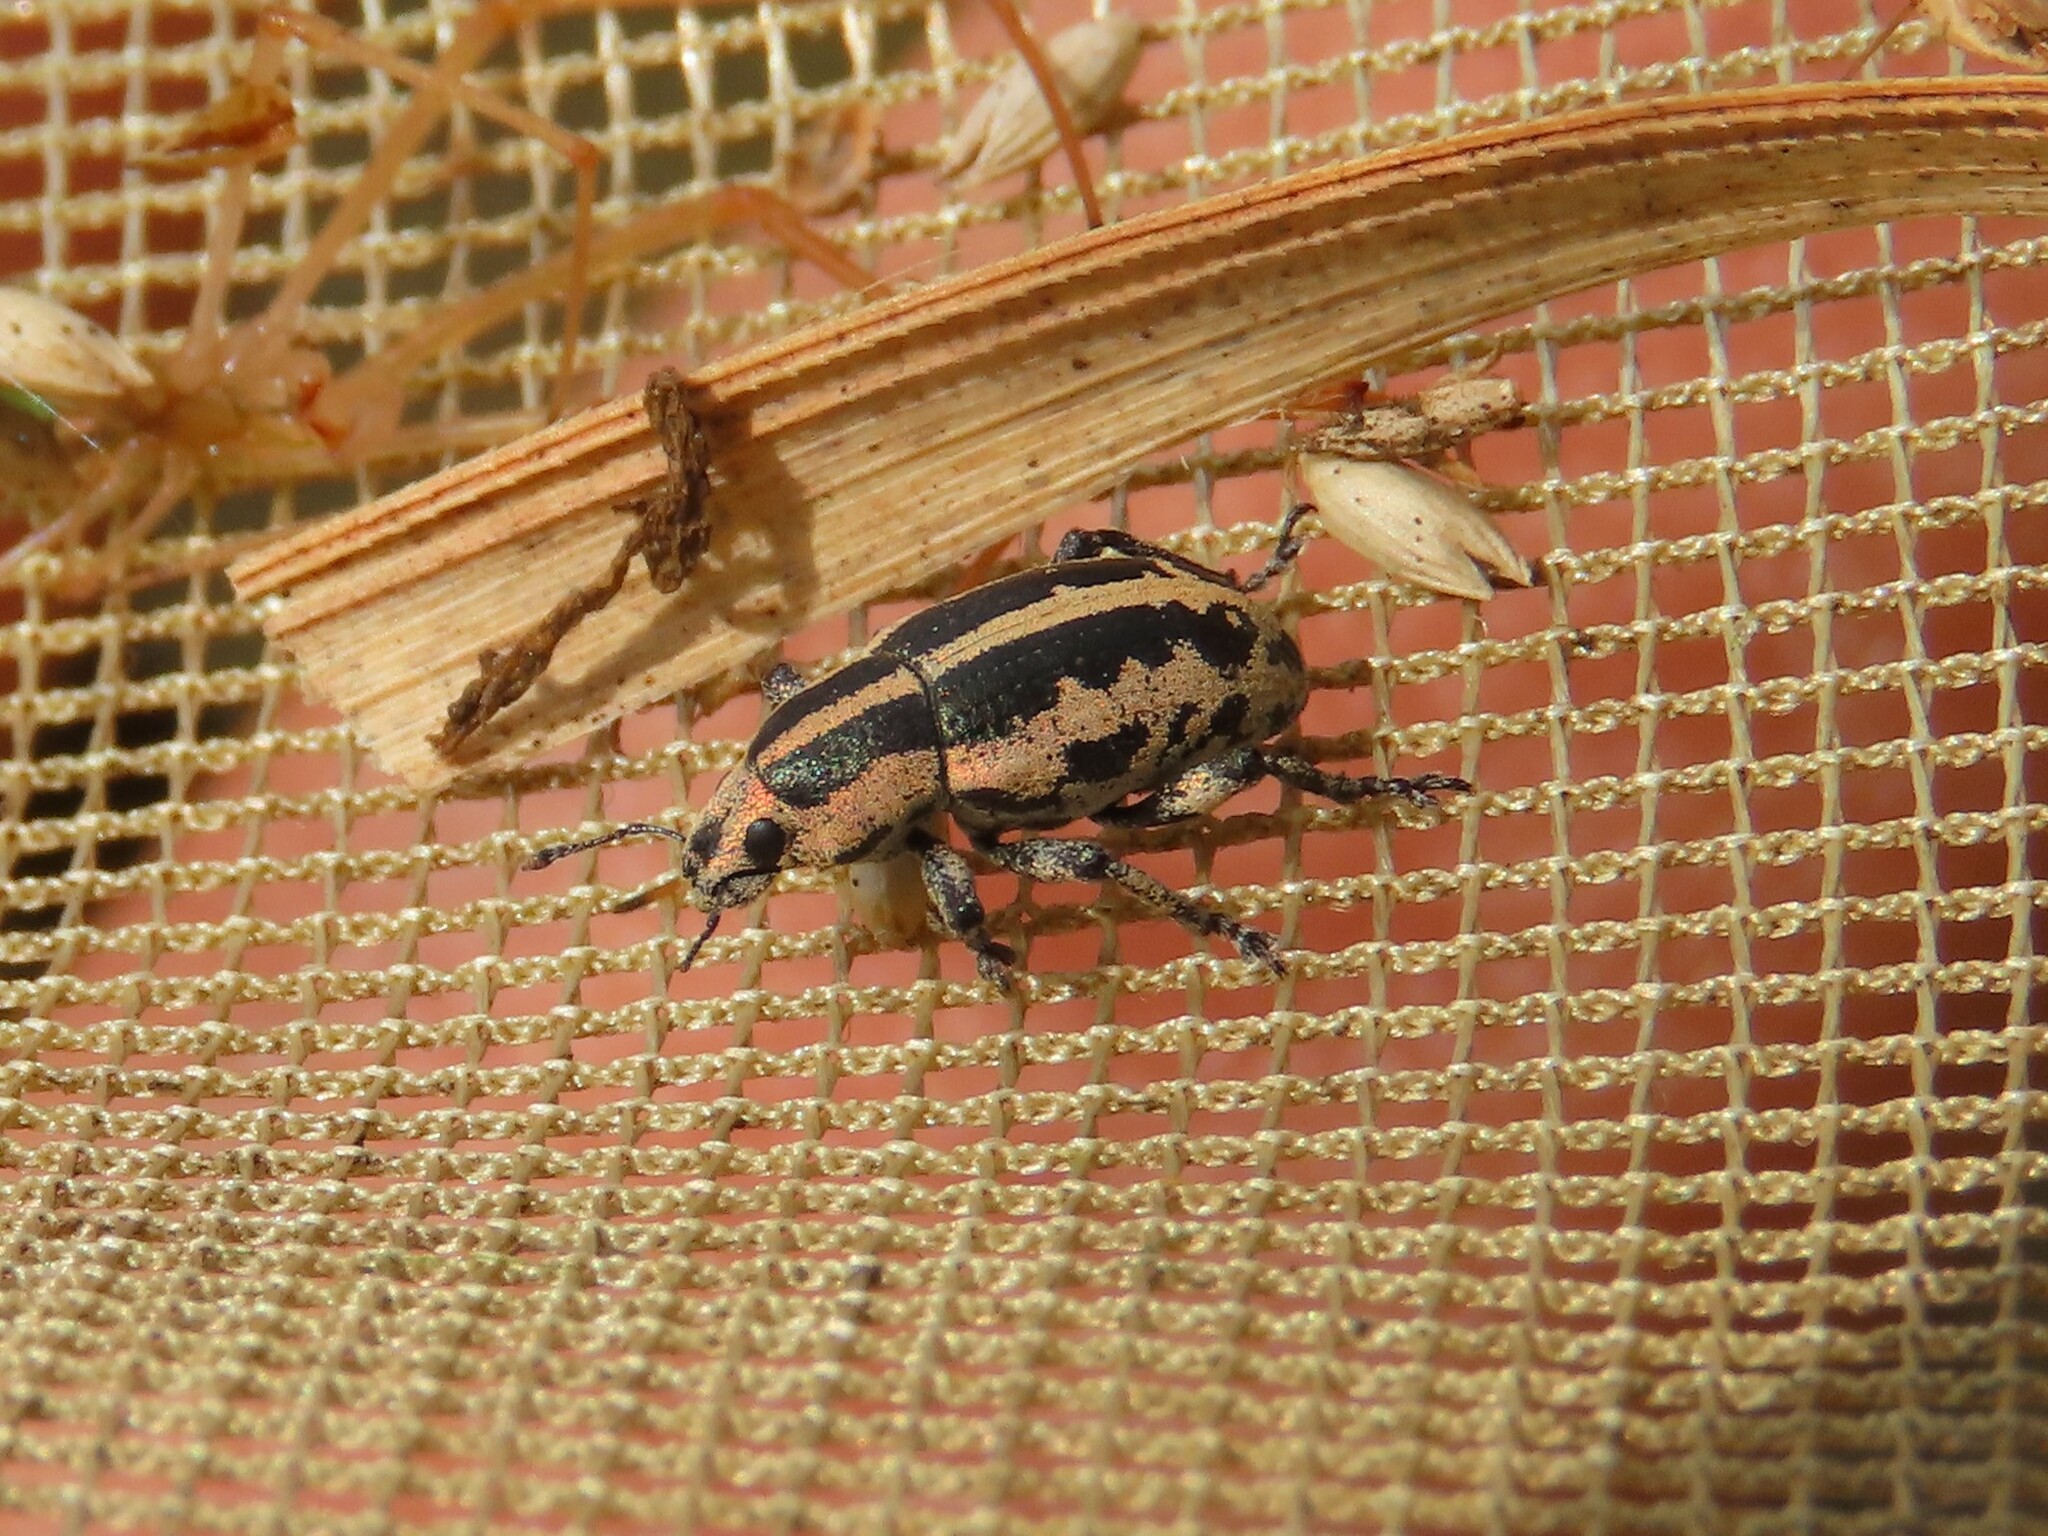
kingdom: Animalia
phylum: Arthropoda
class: Insecta
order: Coleoptera
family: Curculionidae
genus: Eudiagogus
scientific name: Eudiagogus rosenschoeldi
